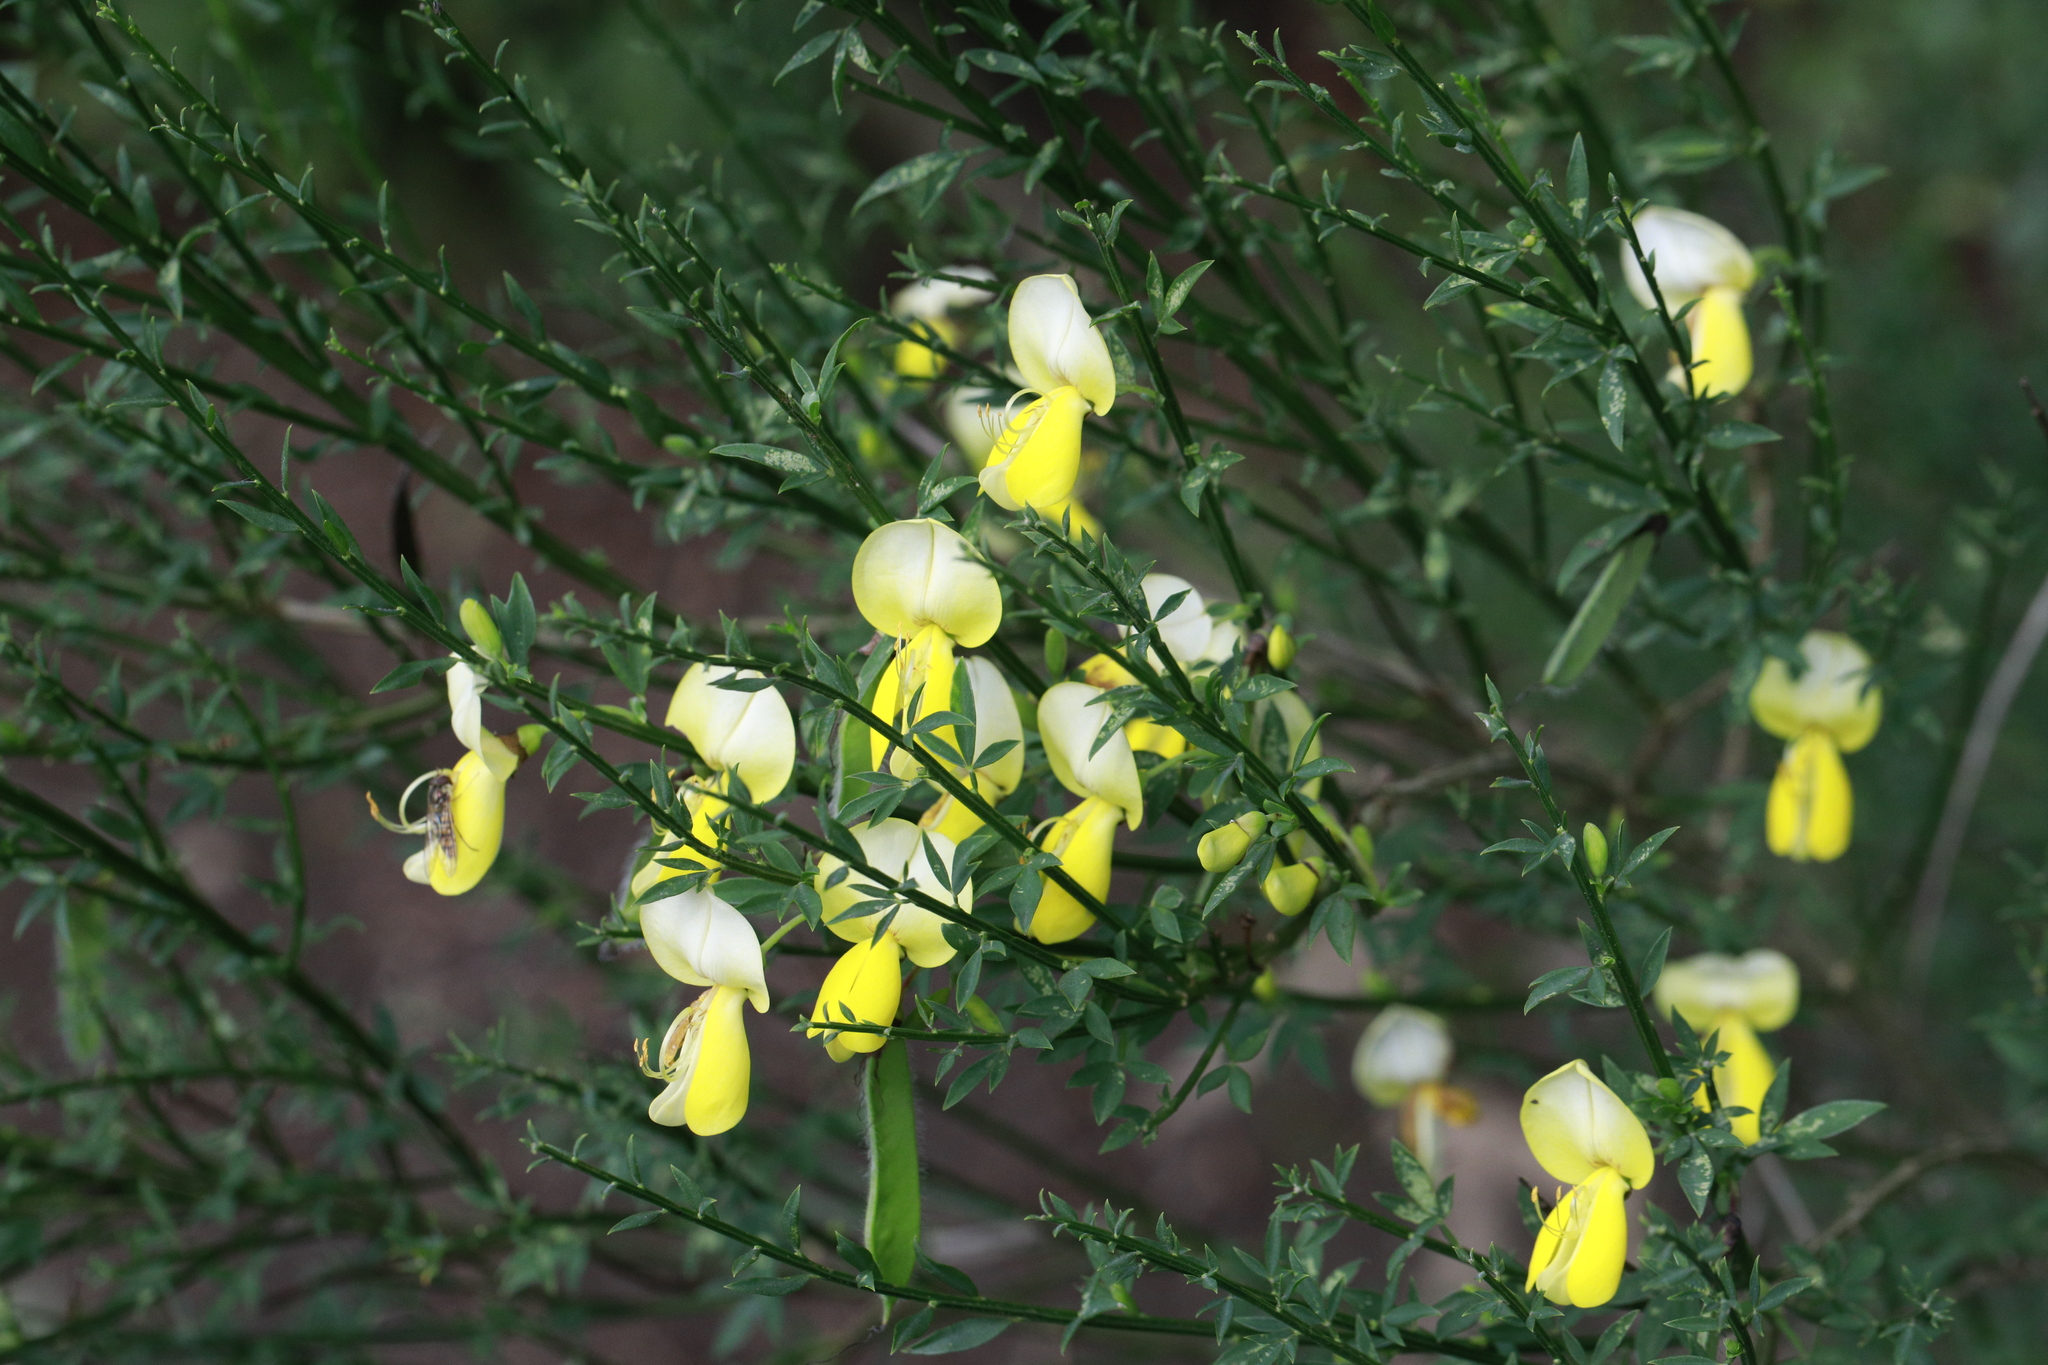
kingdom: Plantae
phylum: Tracheophyta
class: Magnoliopsida
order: Fabales
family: Fabaceae
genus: Cytisus
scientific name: Cytisus scoparius
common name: Scotch broom
